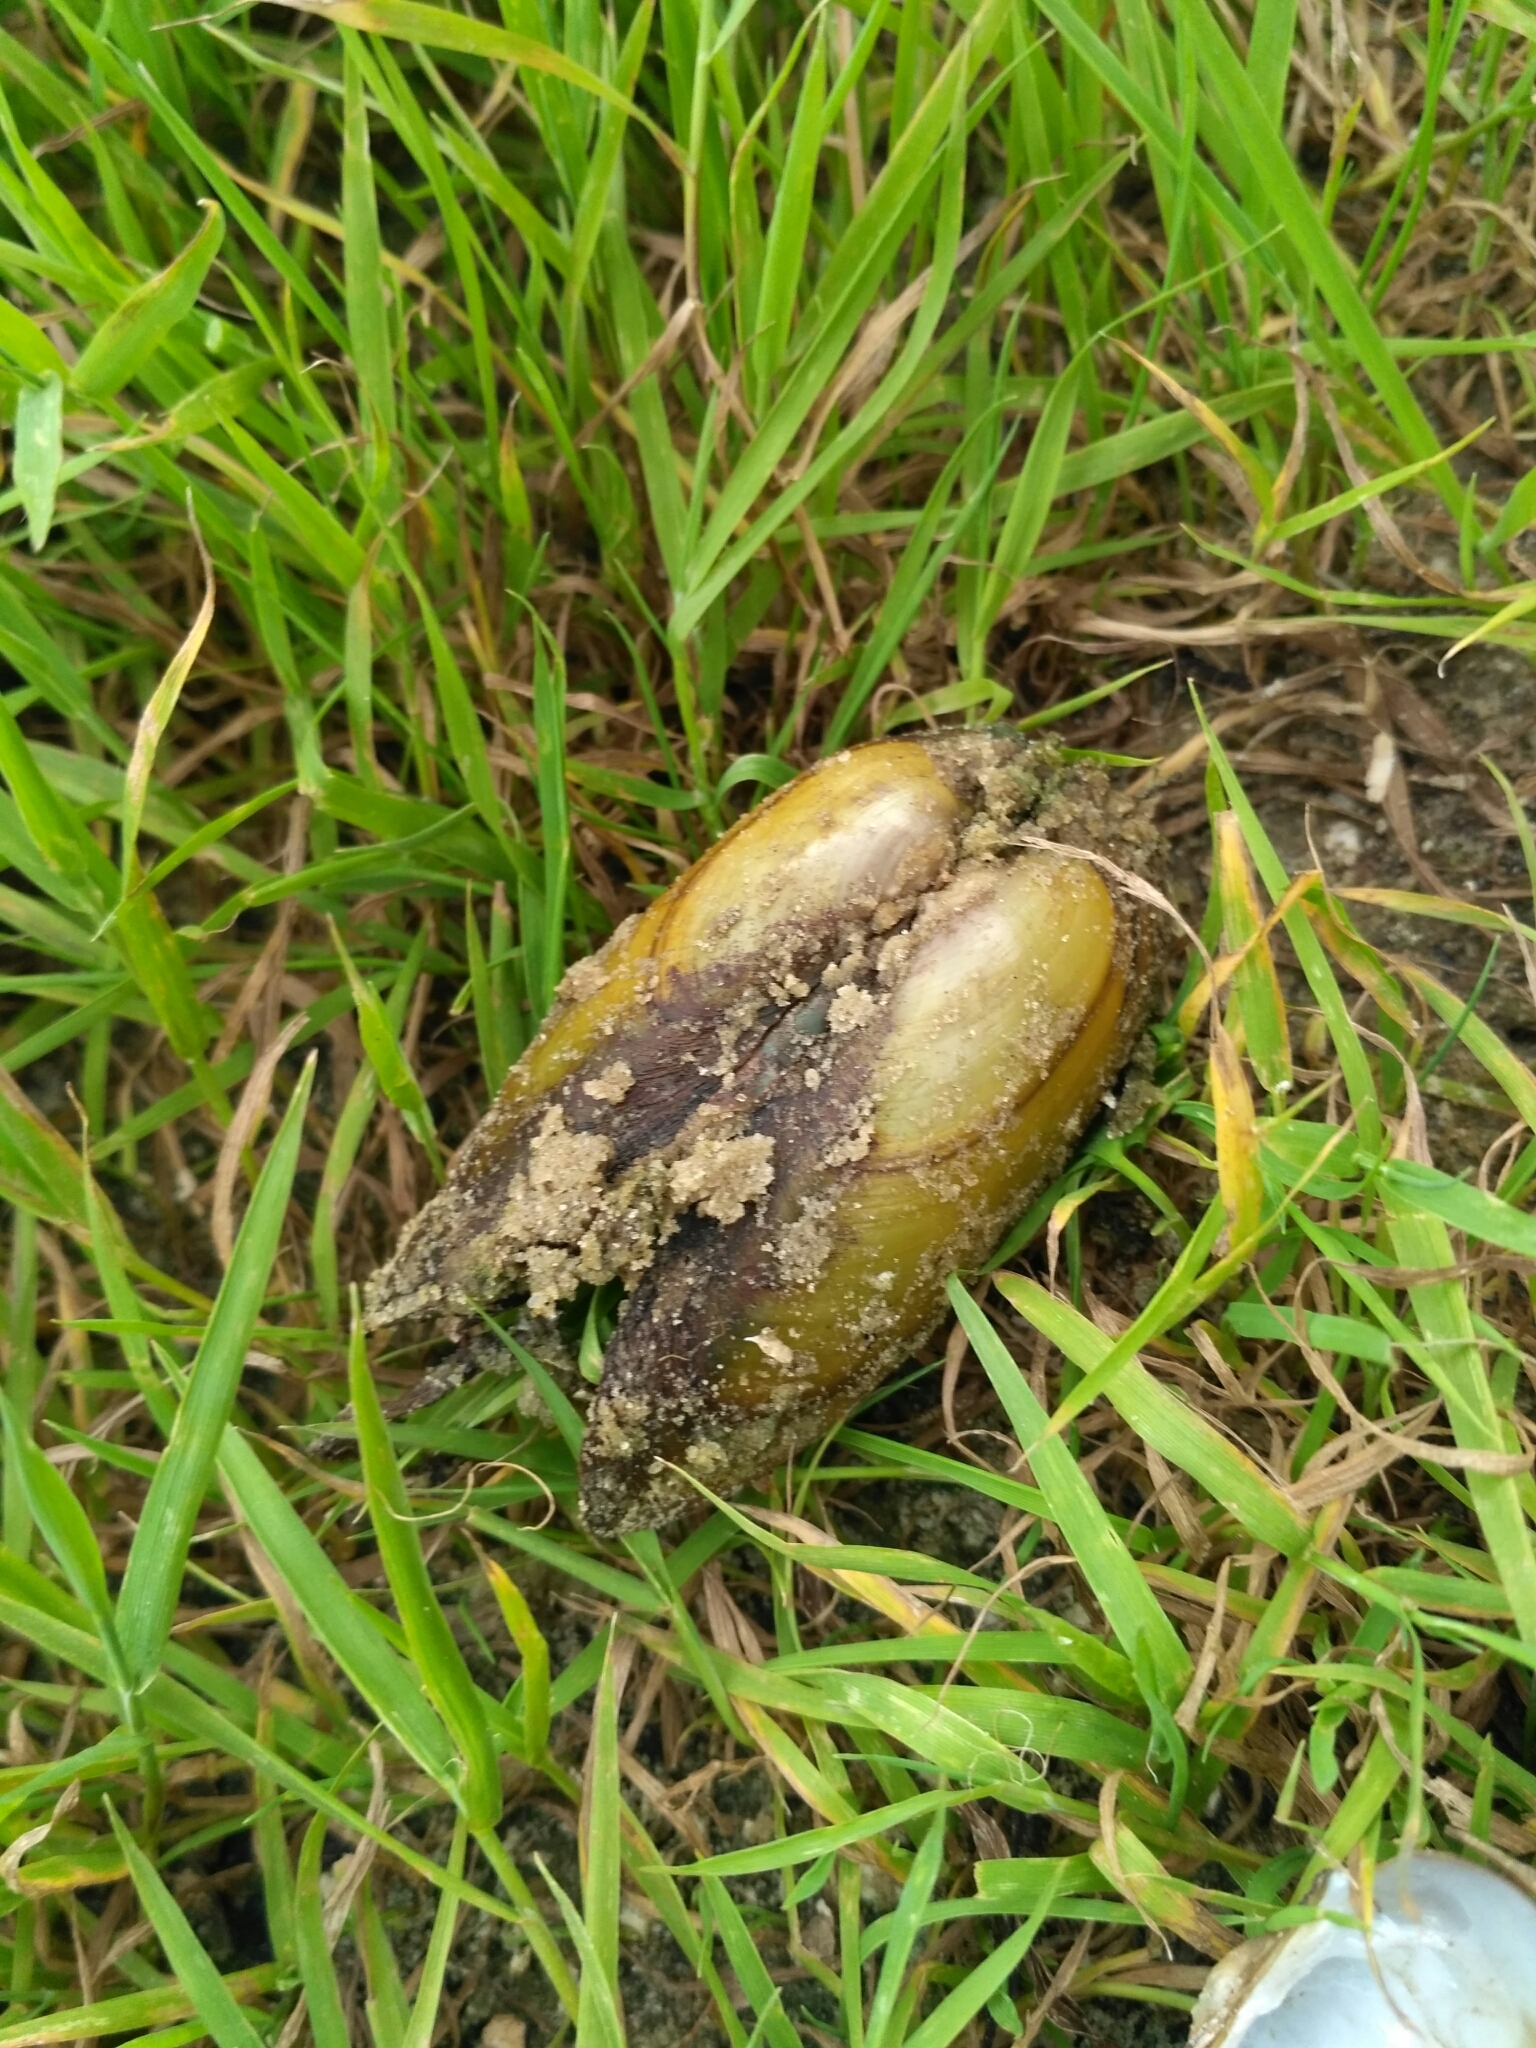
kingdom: Animalia
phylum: Mollusca
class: Bivalvia
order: Unionida
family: Unionidae
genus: Unio
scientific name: Unio pictorum
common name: Painter's mussel
